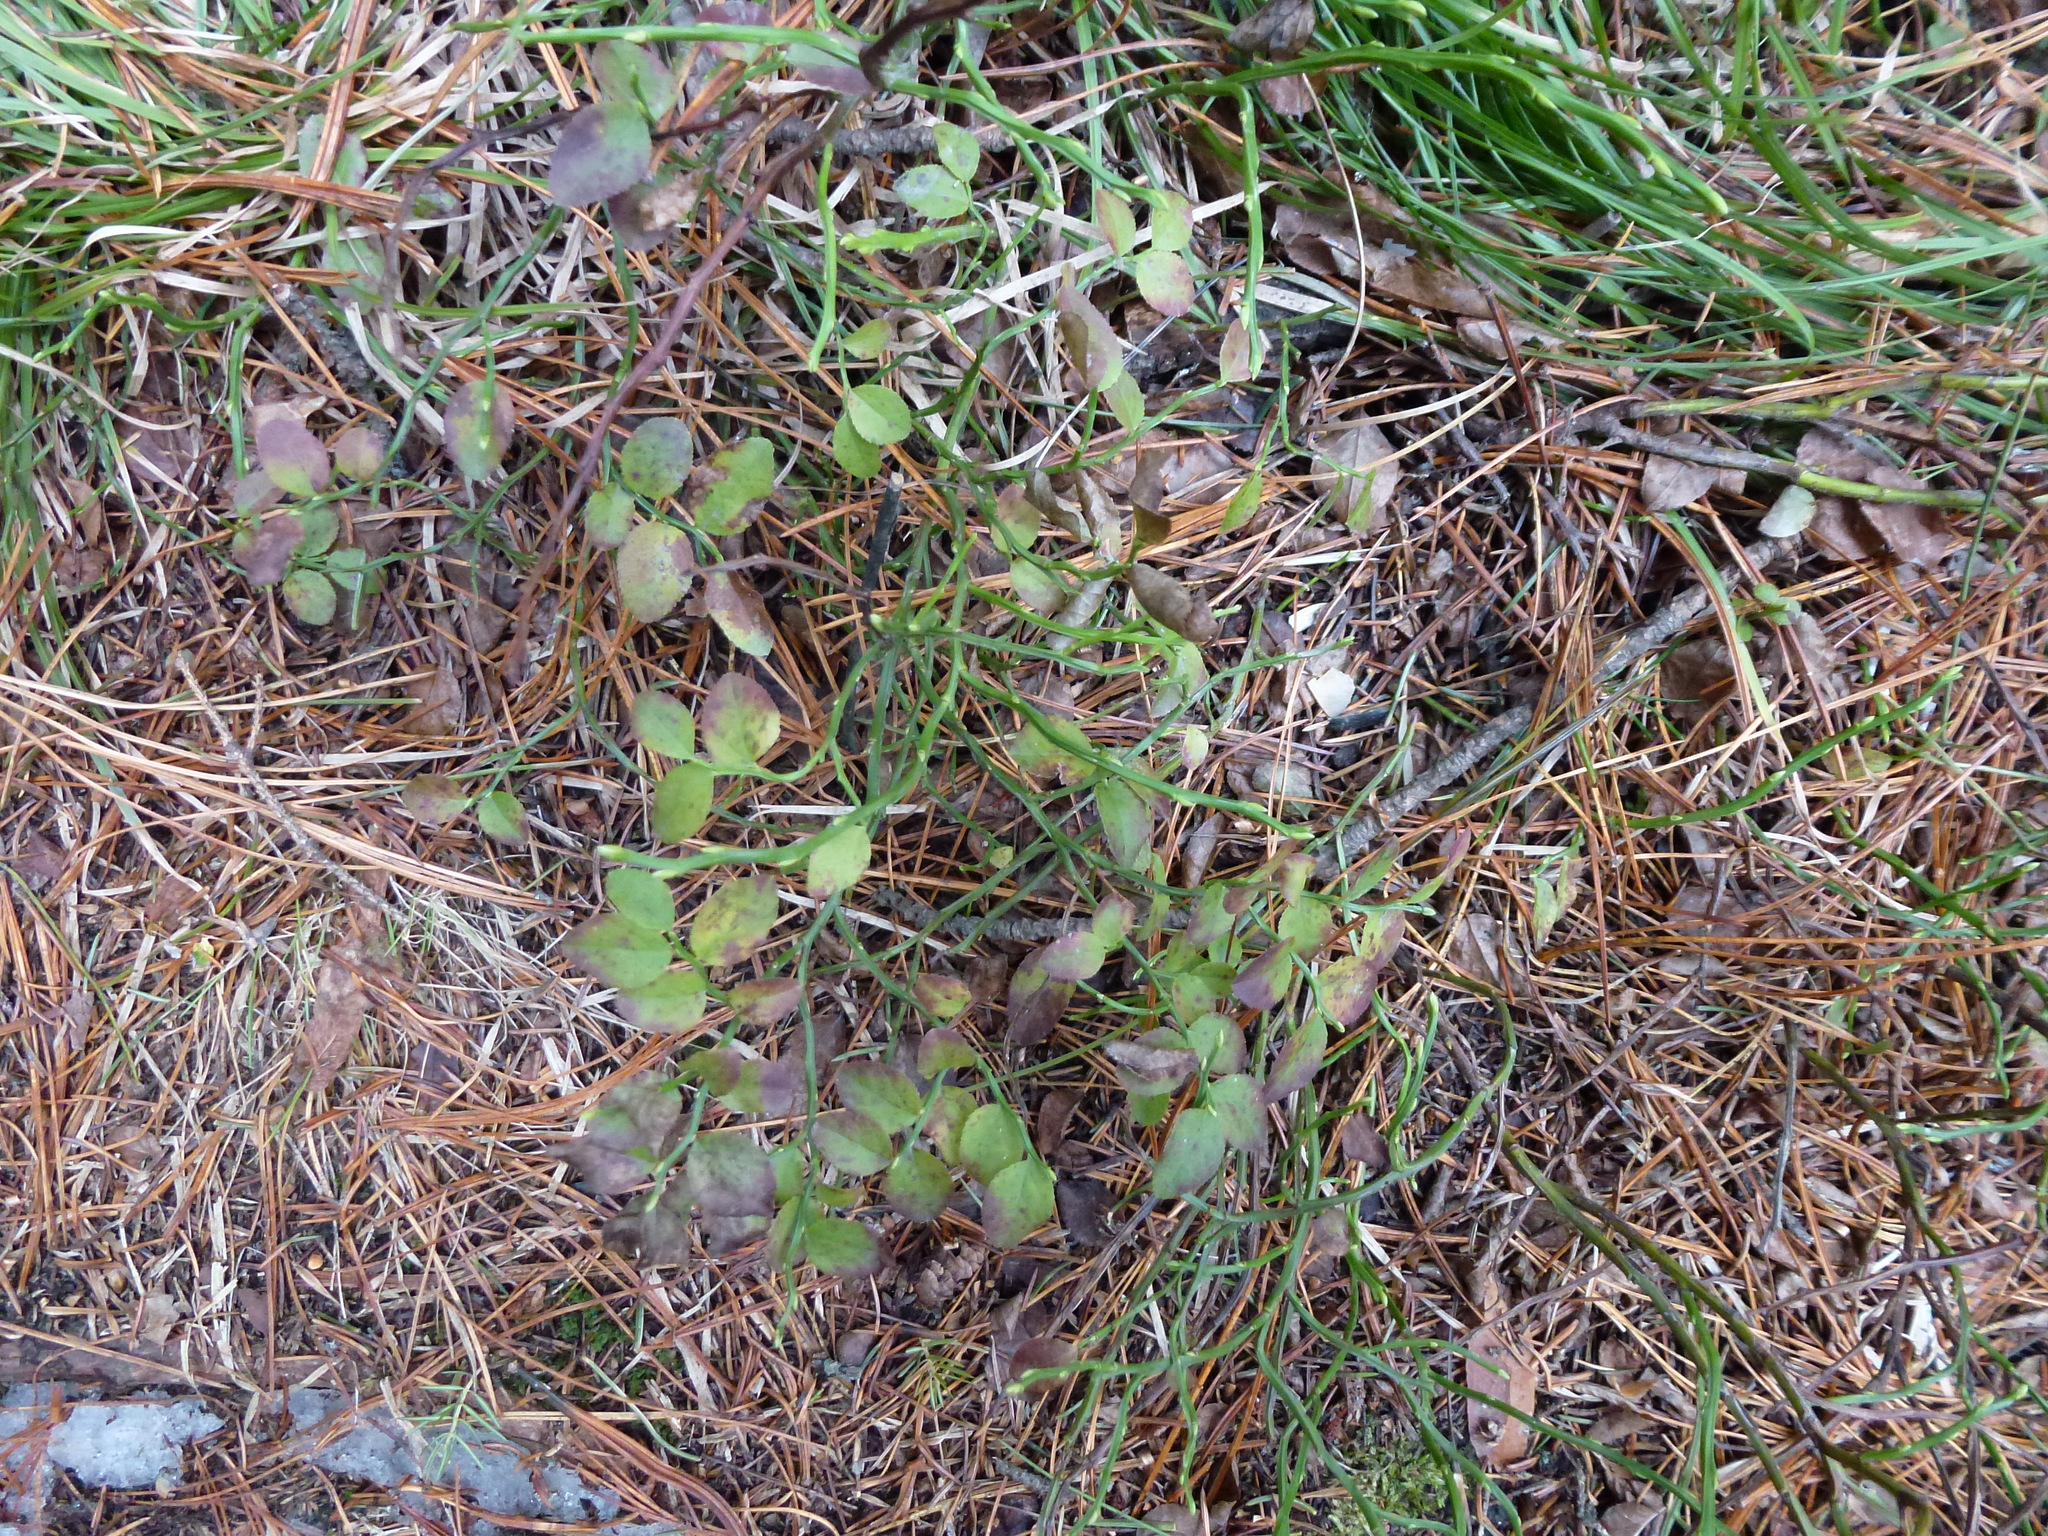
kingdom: Plantae
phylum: Tracheophyta
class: Magnoliopsida
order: Ericales
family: Ericaceae
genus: Vaccinium
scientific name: Vaccinium myrtillus
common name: Bilberry
